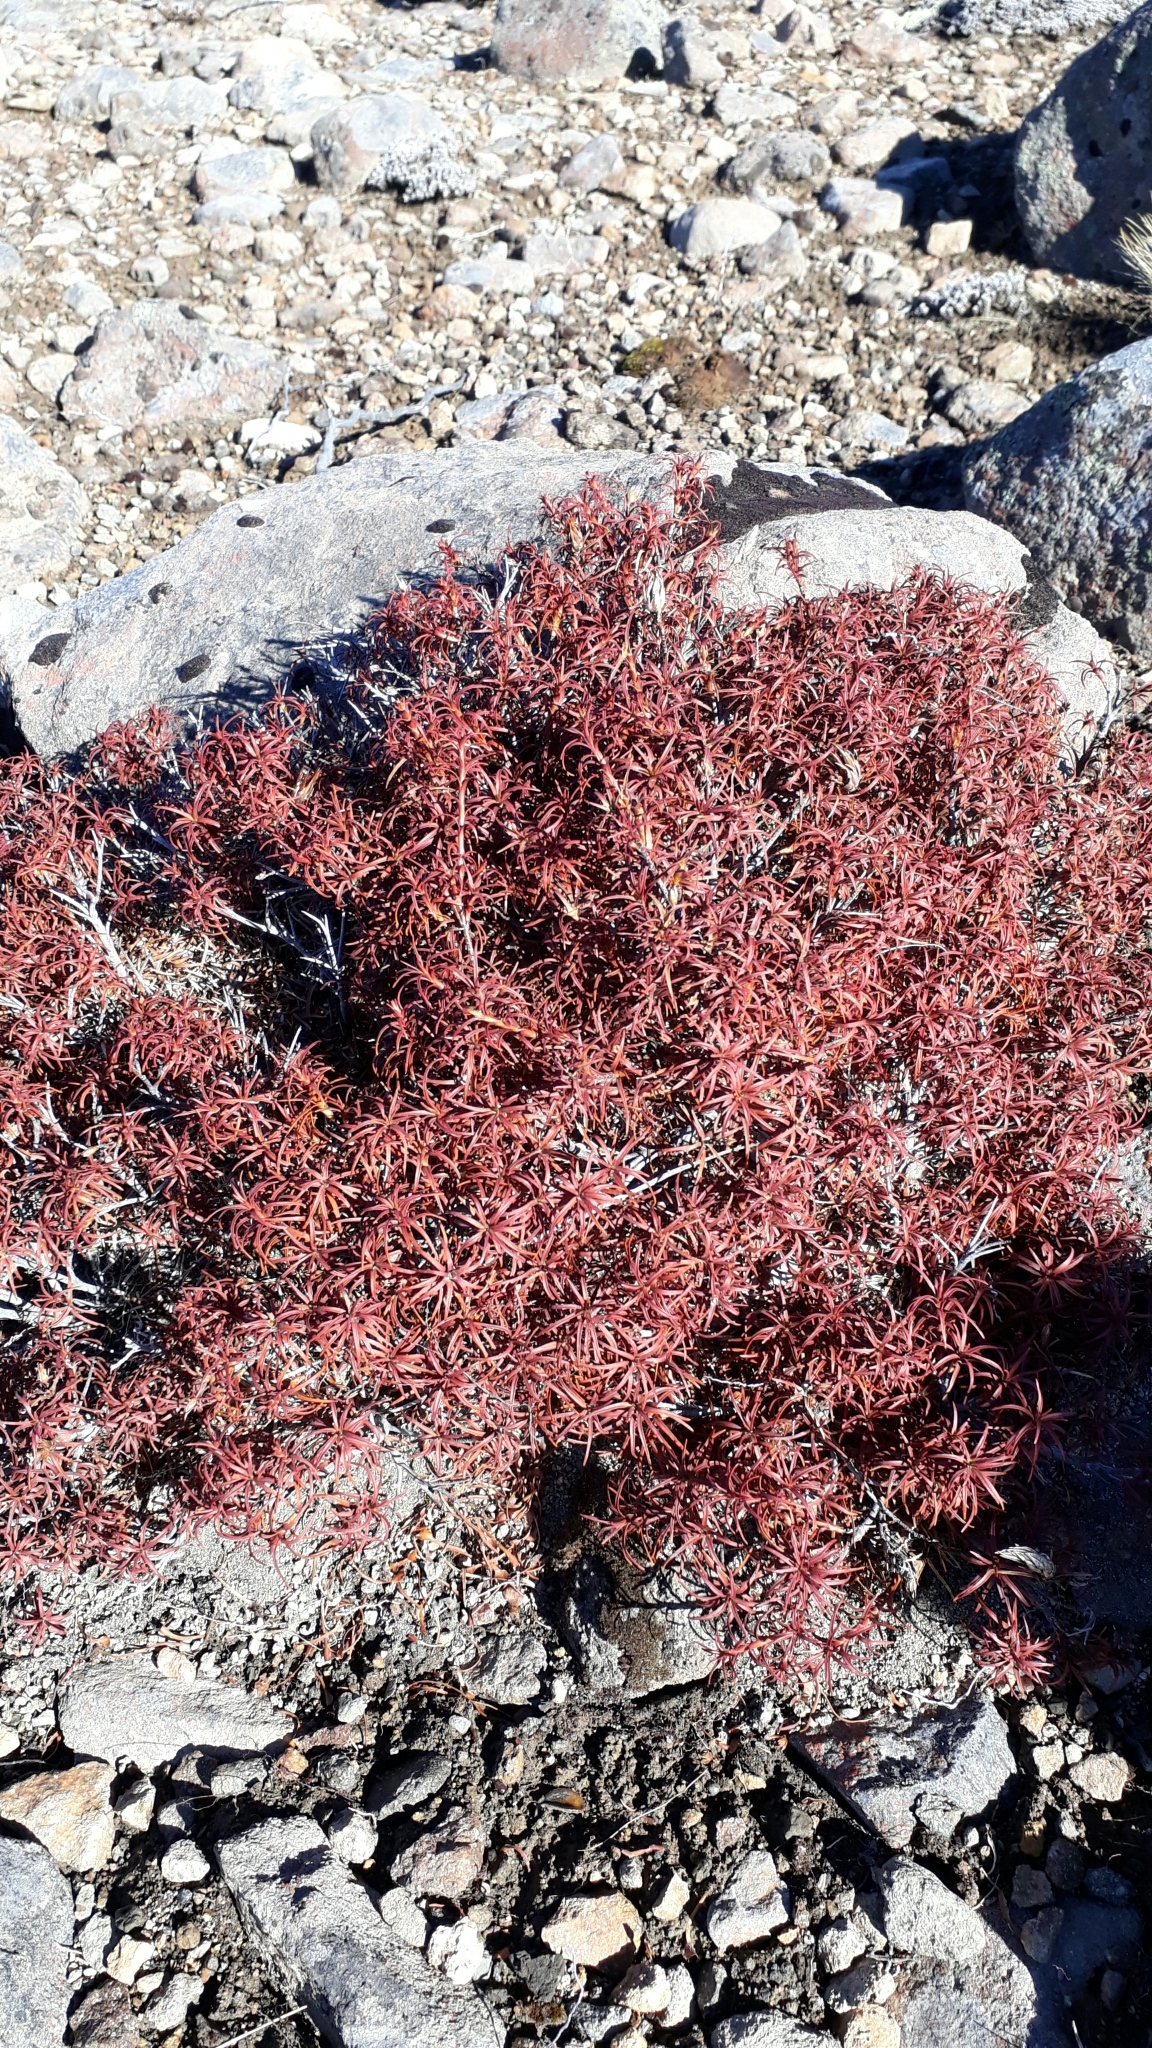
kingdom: Plantae
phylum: Tracheophyta
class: Magnoliopsida
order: Ericales
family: Ericaceae
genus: Dracophyllum
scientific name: Dracophyllum recurvum
